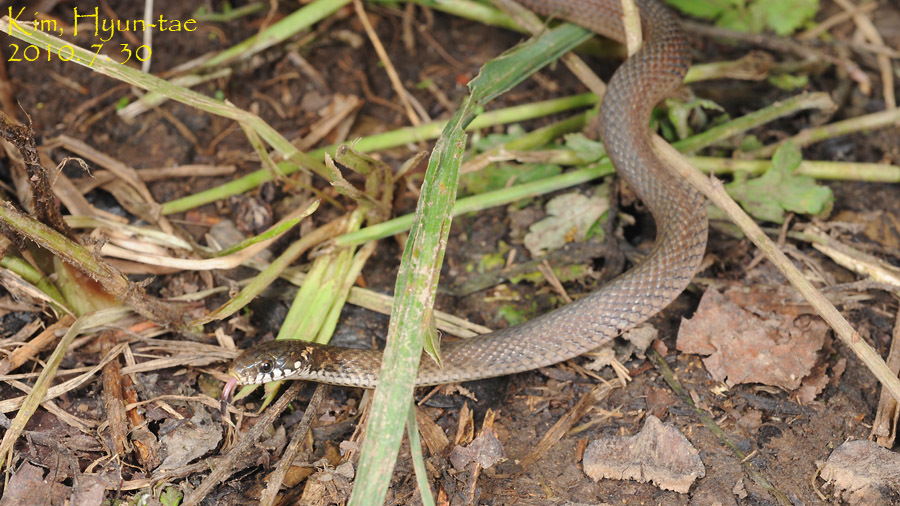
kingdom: Animalia
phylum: Chordata
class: Squamata
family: Colubridae
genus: Hebius
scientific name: Hebius vibakari
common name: Japanese keelback
